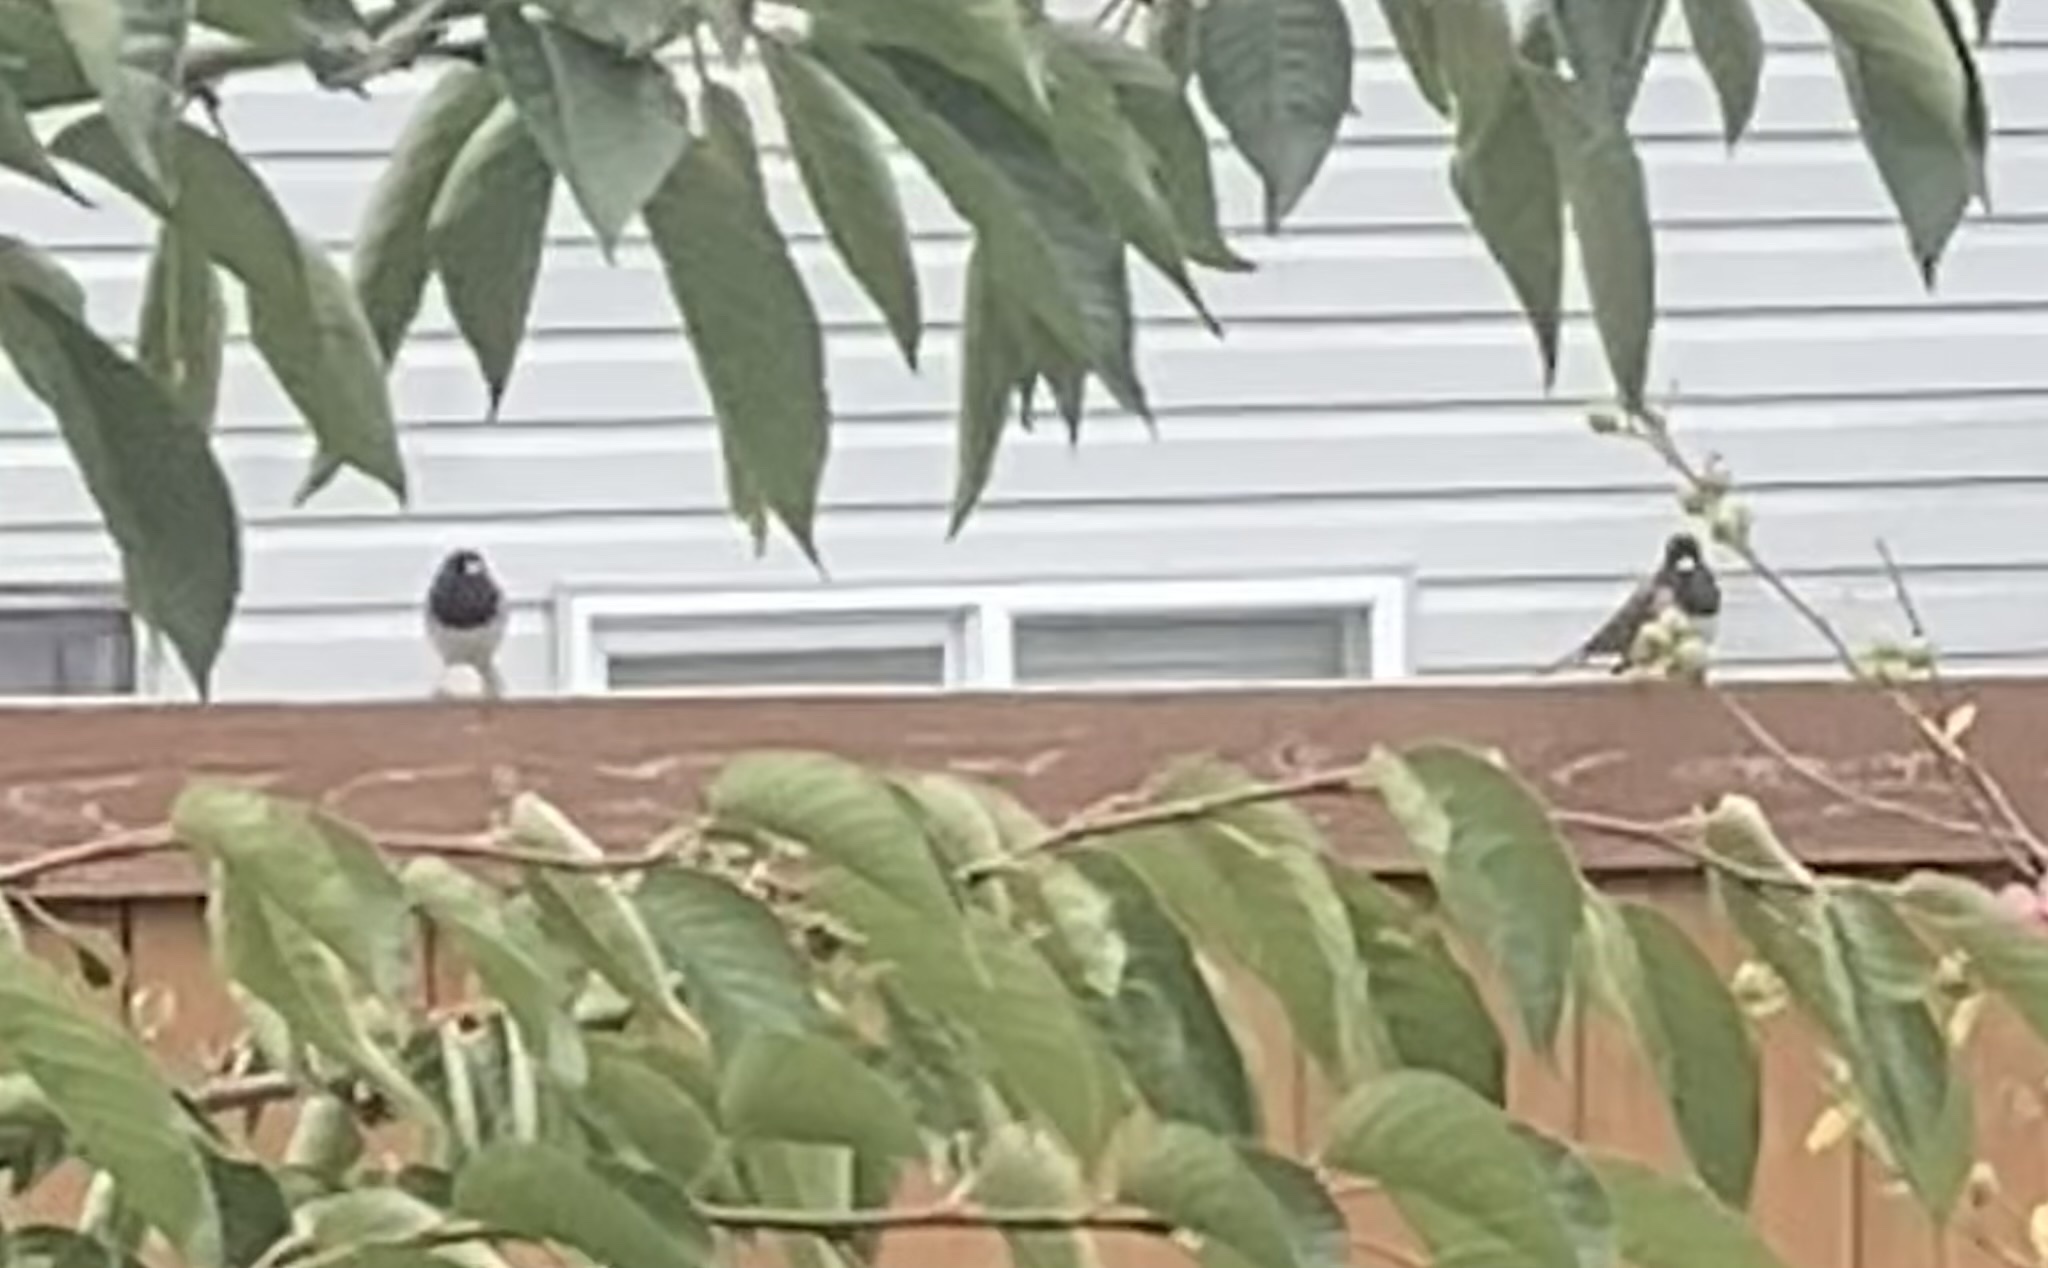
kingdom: Animalia
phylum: Chordata
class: Aves
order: Passeriformes
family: Passerellidae
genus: Junco
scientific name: Junco hyemalis
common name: Dark-eyed junco
